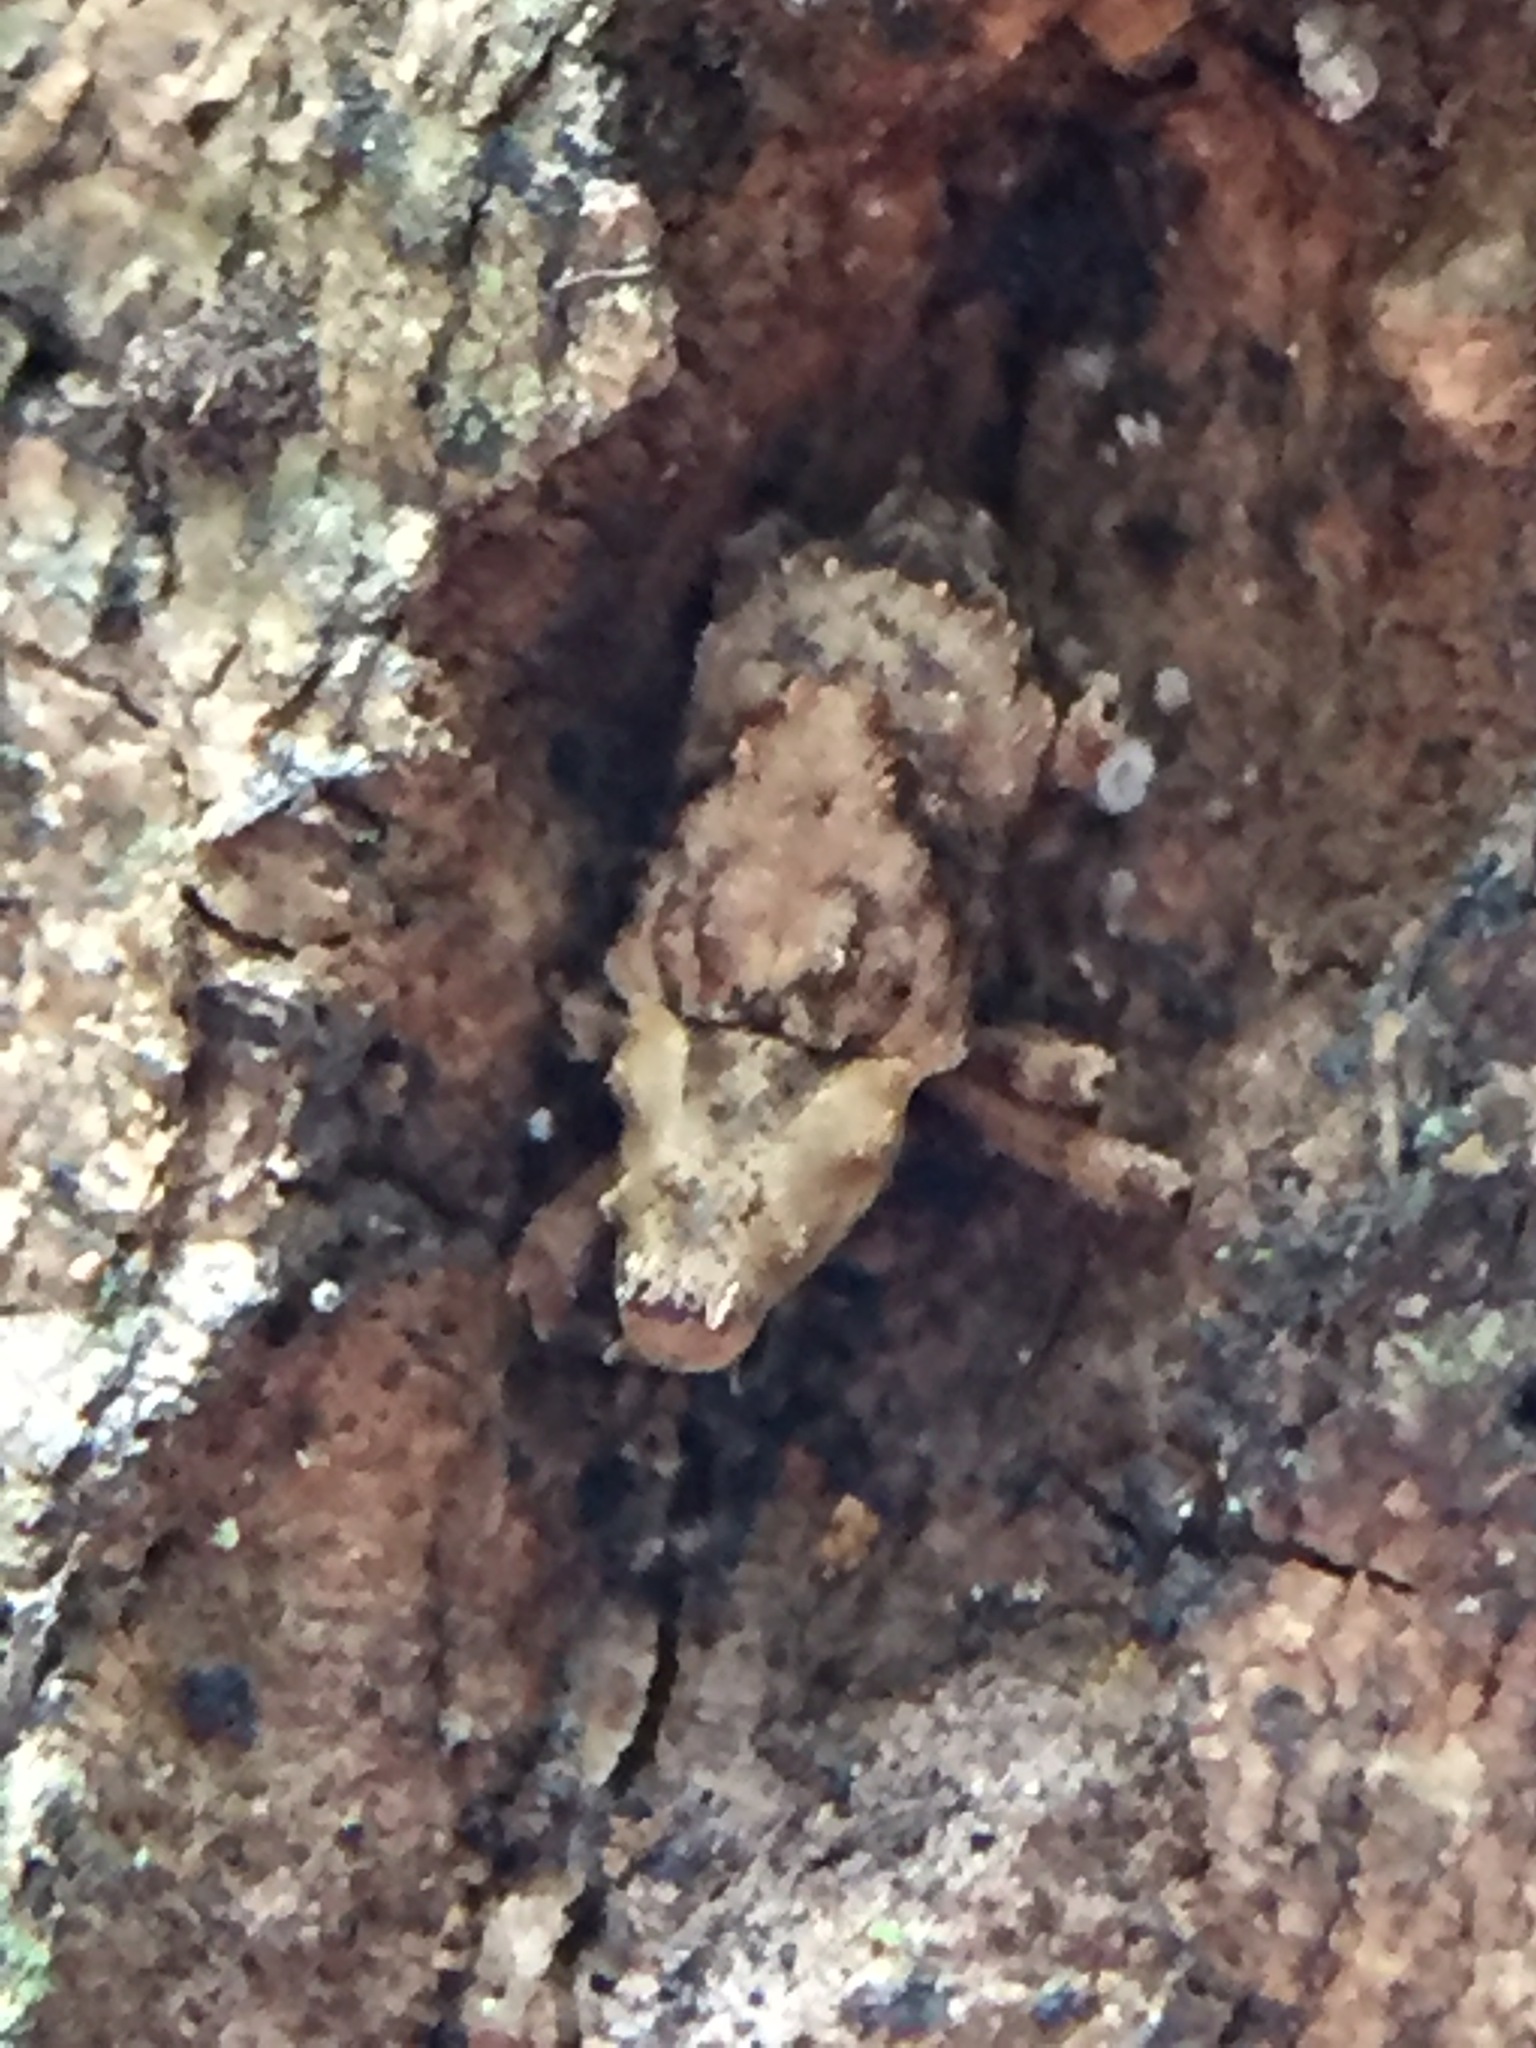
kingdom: Animalia
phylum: Arthropoda
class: Insecta
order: Coleoptera
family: Curculionidae
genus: Mecistostylus
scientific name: Mecistostylus douei
